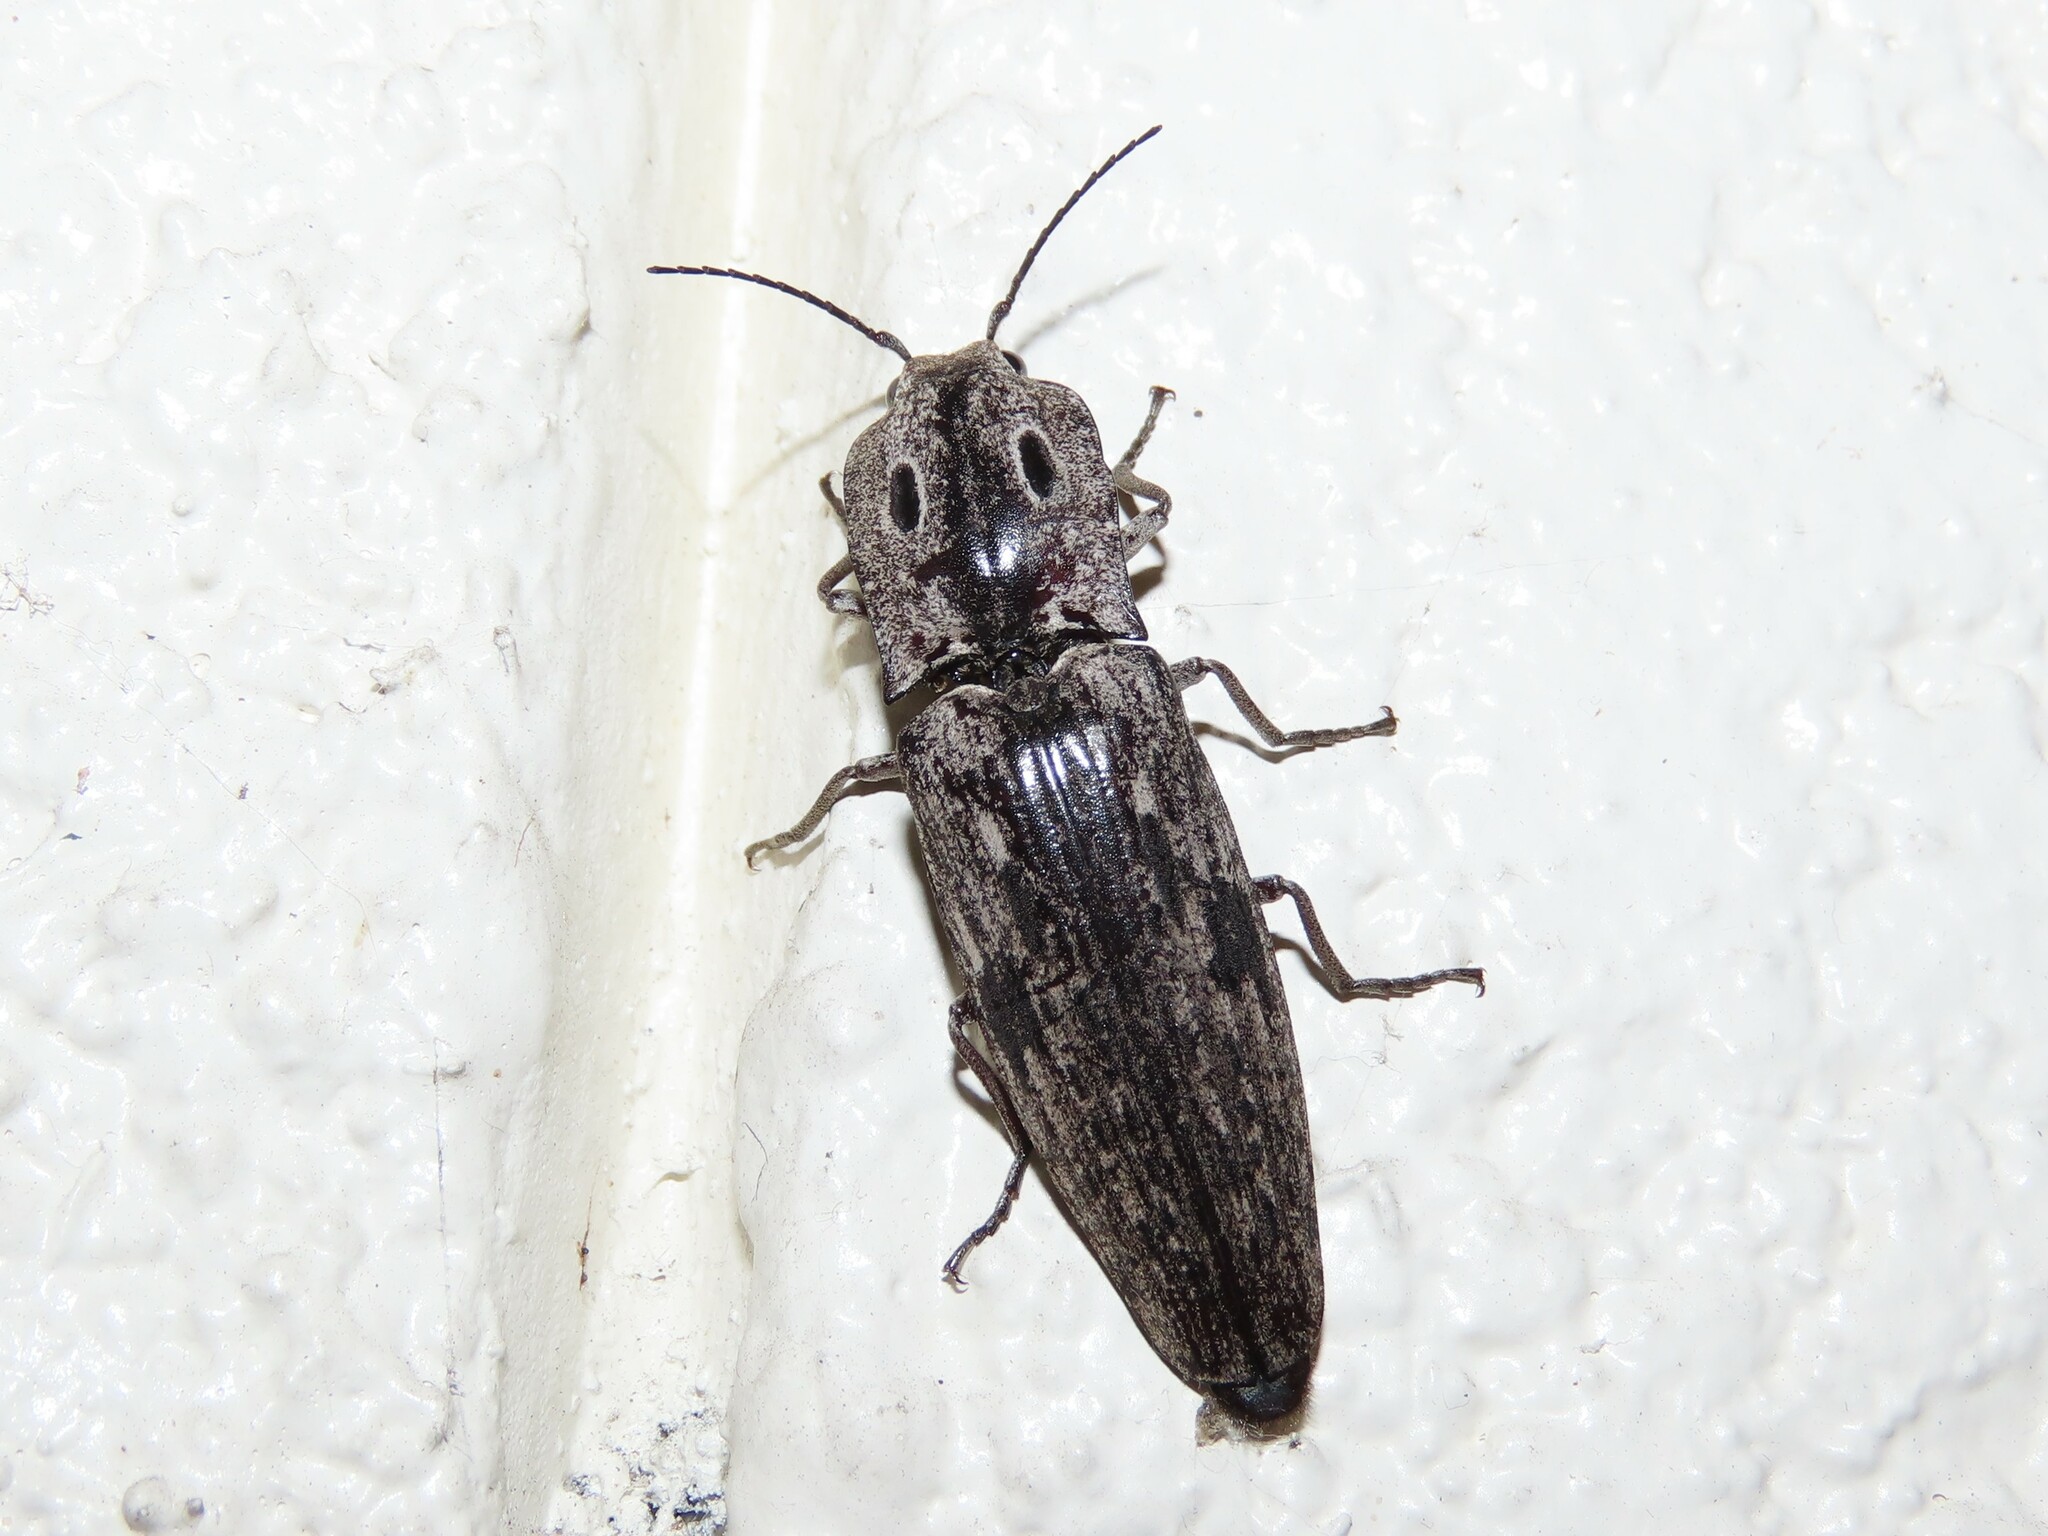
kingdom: Animalia
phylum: Arthropoda
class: Insecta
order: Coleoptera
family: Elateridae
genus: Alaus
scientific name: Alaus myops
